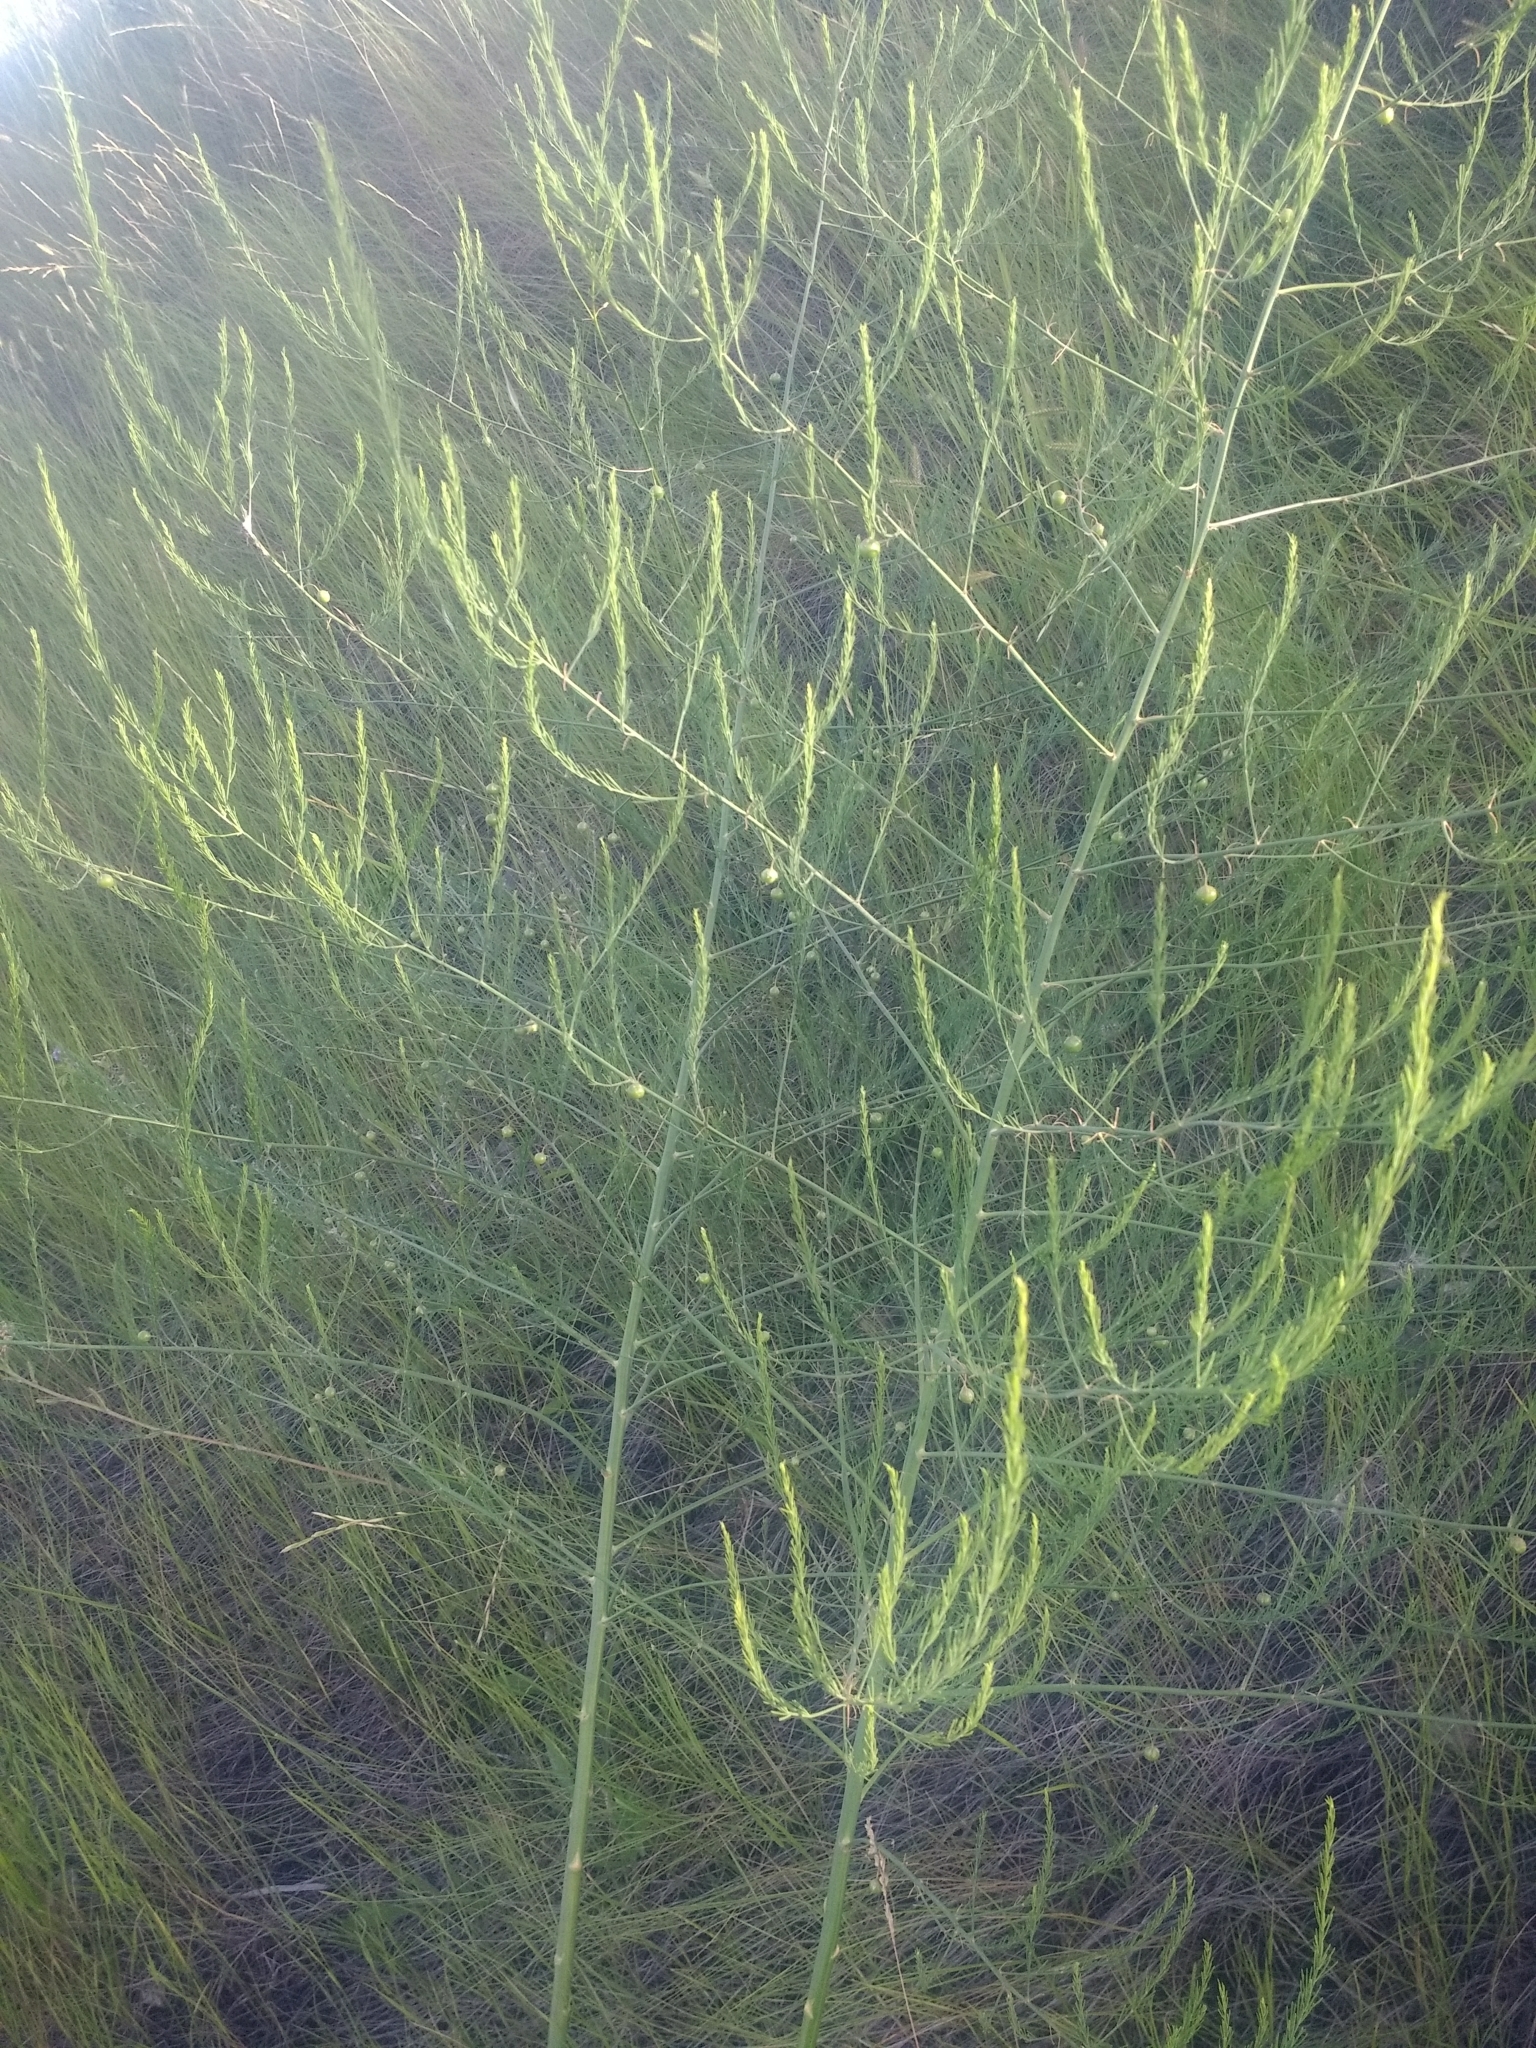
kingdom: Plantae
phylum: Tracheophyta
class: Liliopsida
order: Asparagales
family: Asparagaceae
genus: Asparagus
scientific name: Asparagus officinalis
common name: Garden asparagus
